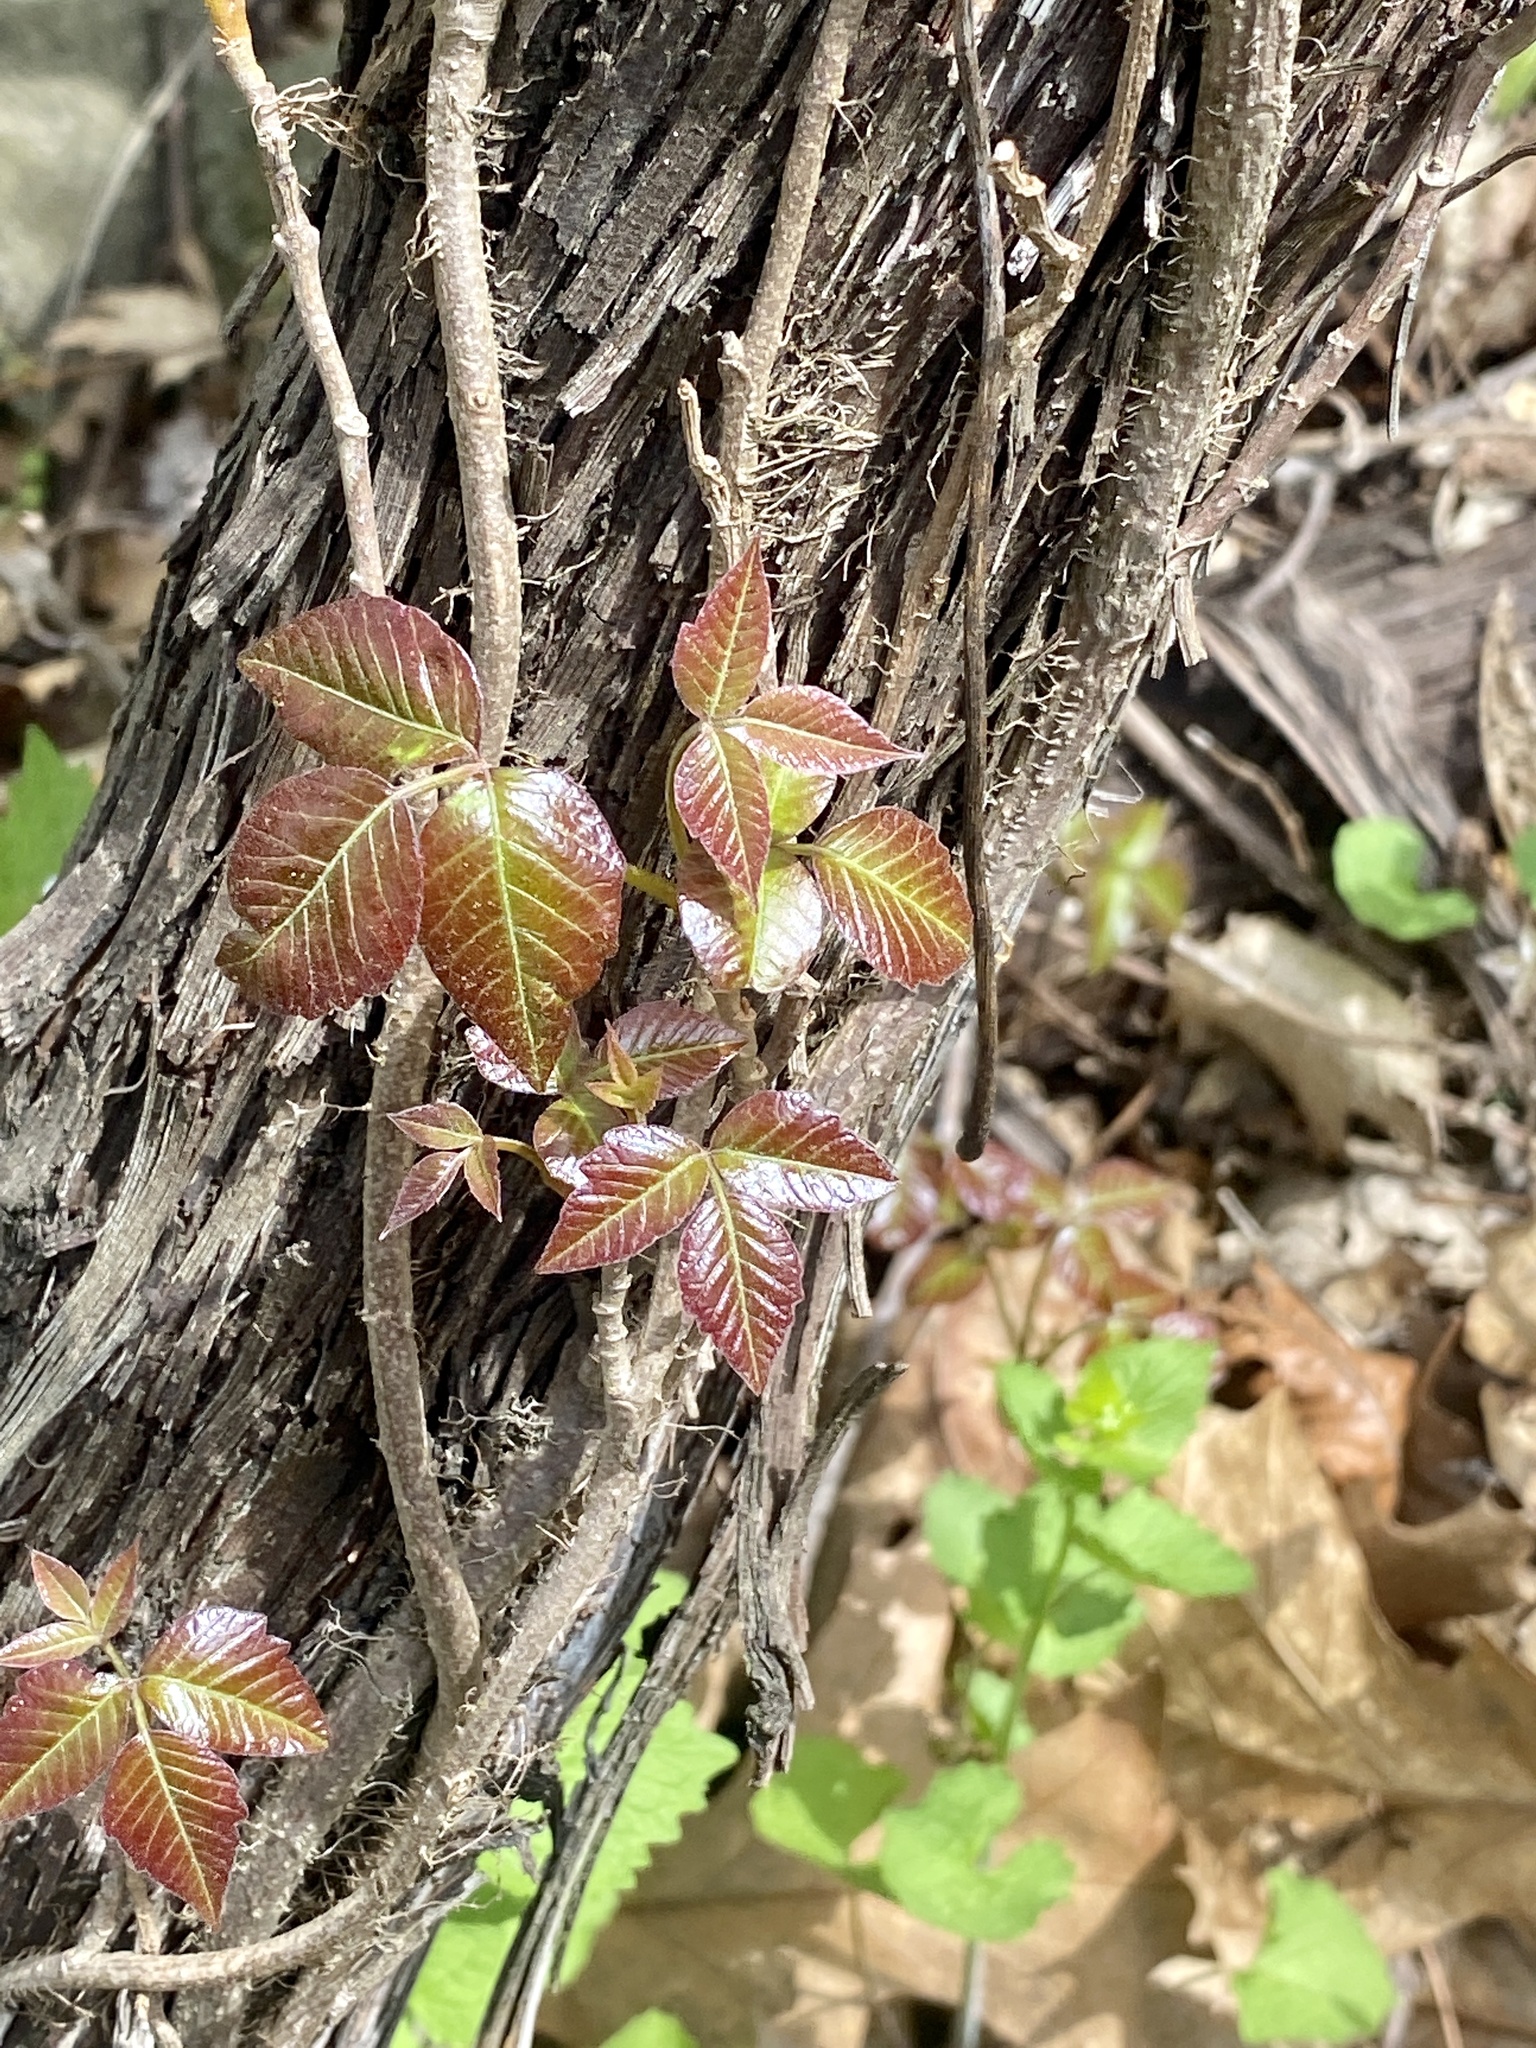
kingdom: Plantae
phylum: Tracheophyta
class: Magnoliopsida
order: Sapindales
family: Anacardiaceae
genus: Toxicodendron
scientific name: Toxicodendron radicans
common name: Poison ivy
